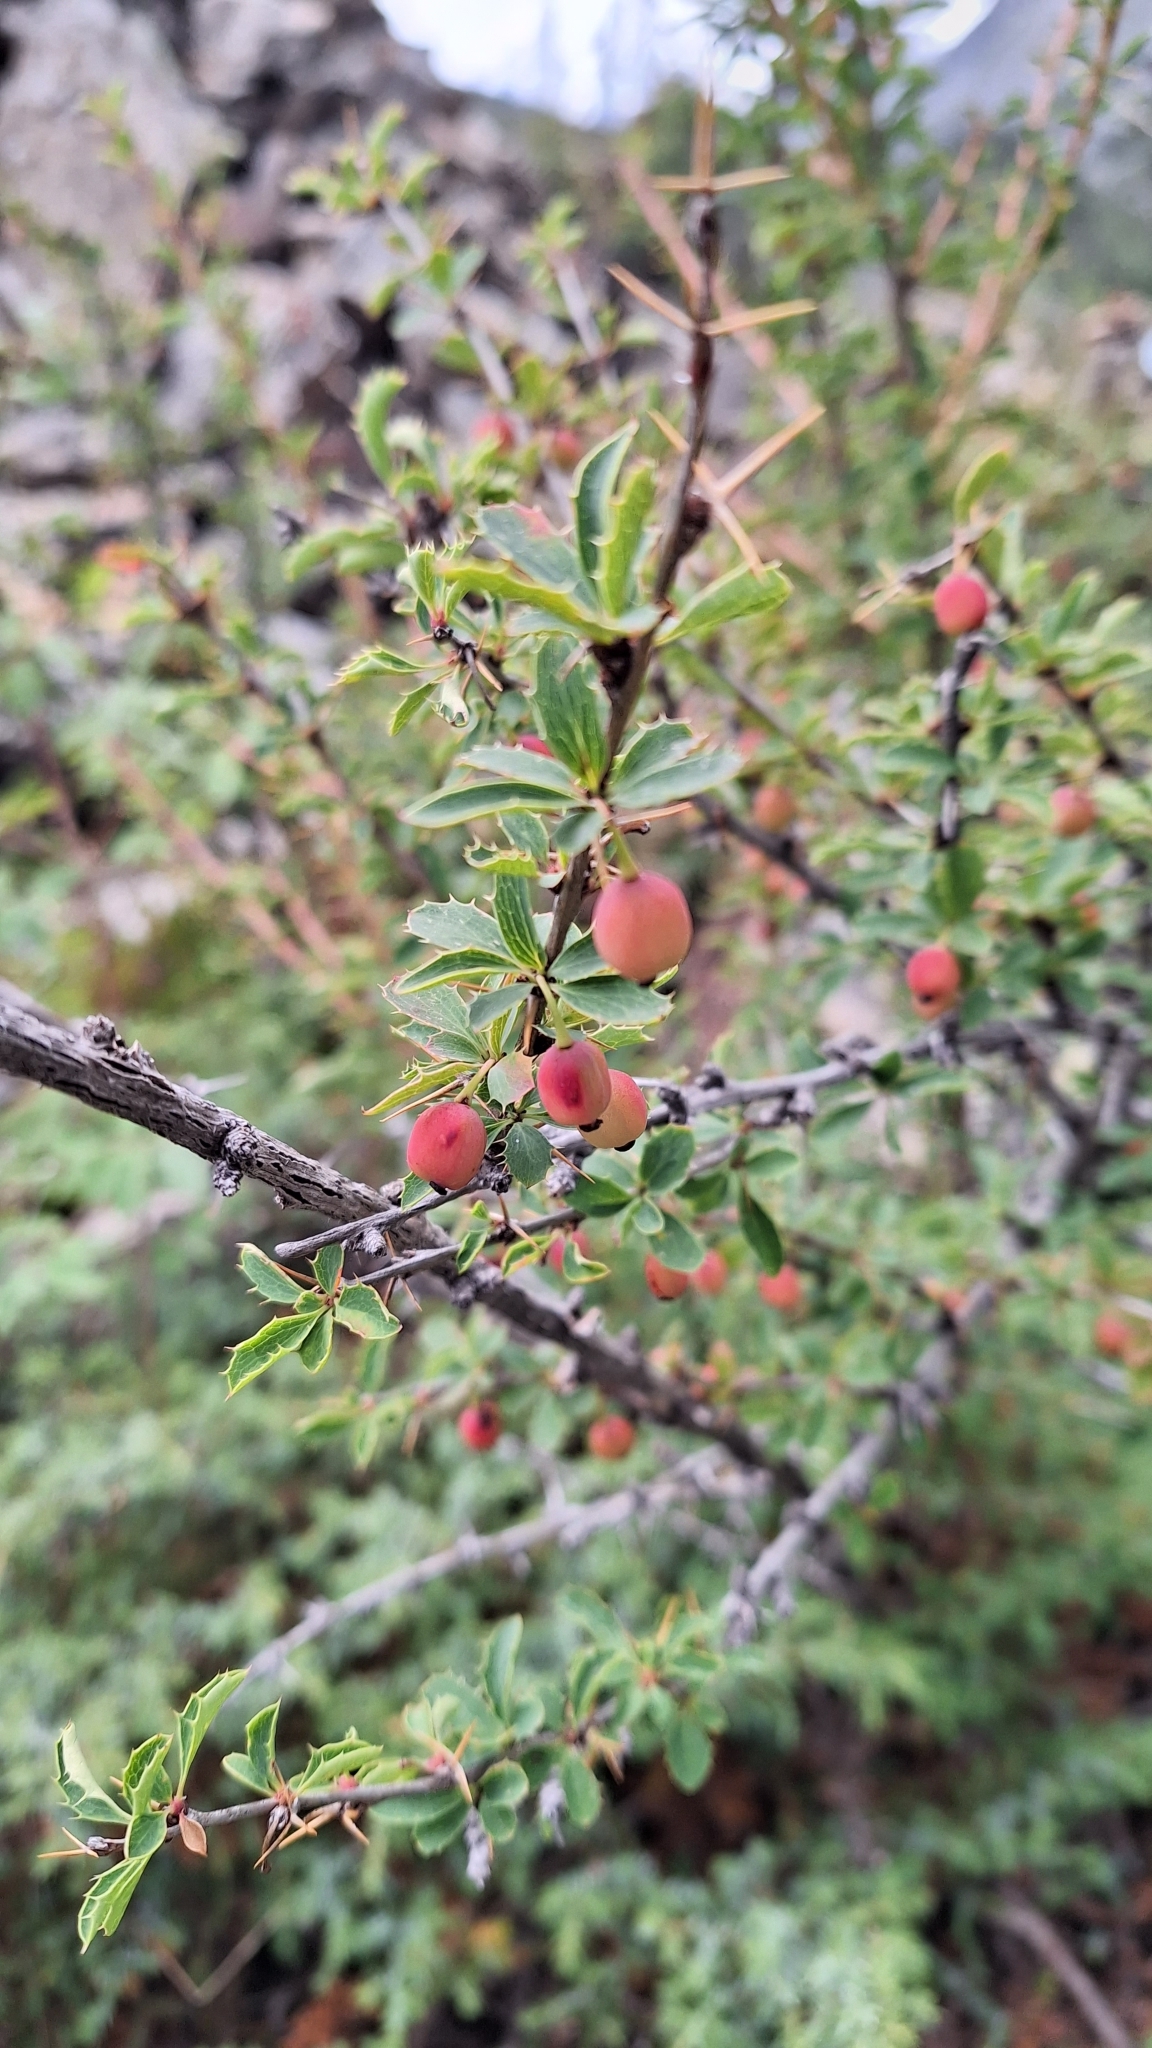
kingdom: Plantae
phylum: Tracheophyta
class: Magnoliopsida
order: Ranunculales
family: Berberidaceae
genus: Berberis
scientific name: Berberis sibirica
